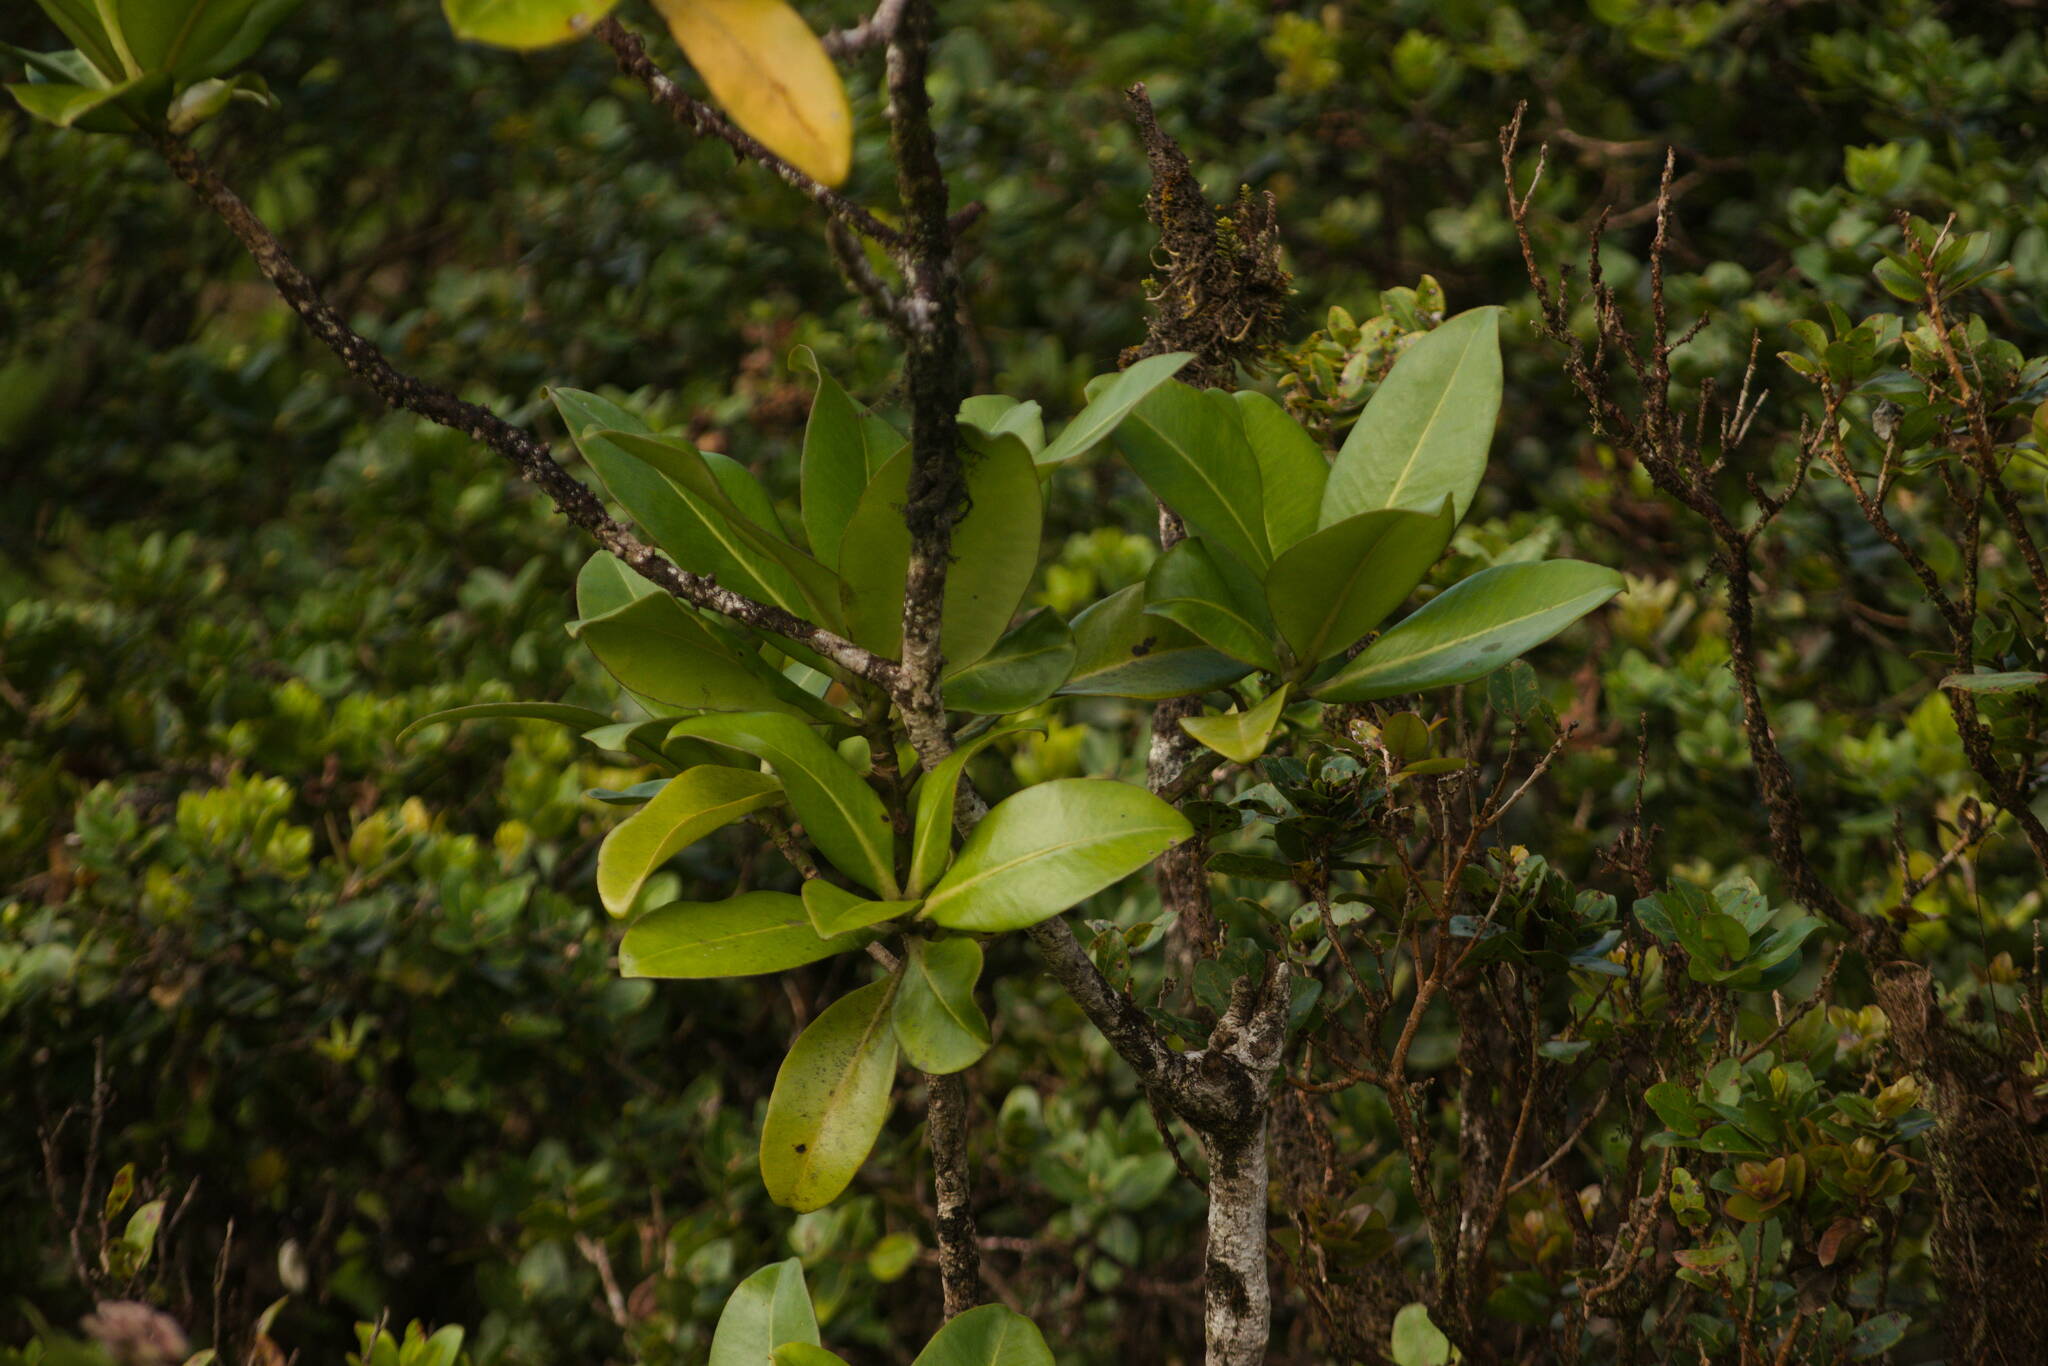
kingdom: Plantae
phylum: Tracheophyta
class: Magnoliopsida
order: Ericales
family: Primulaceae
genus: Myrsine
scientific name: Myrsine pukooensis
